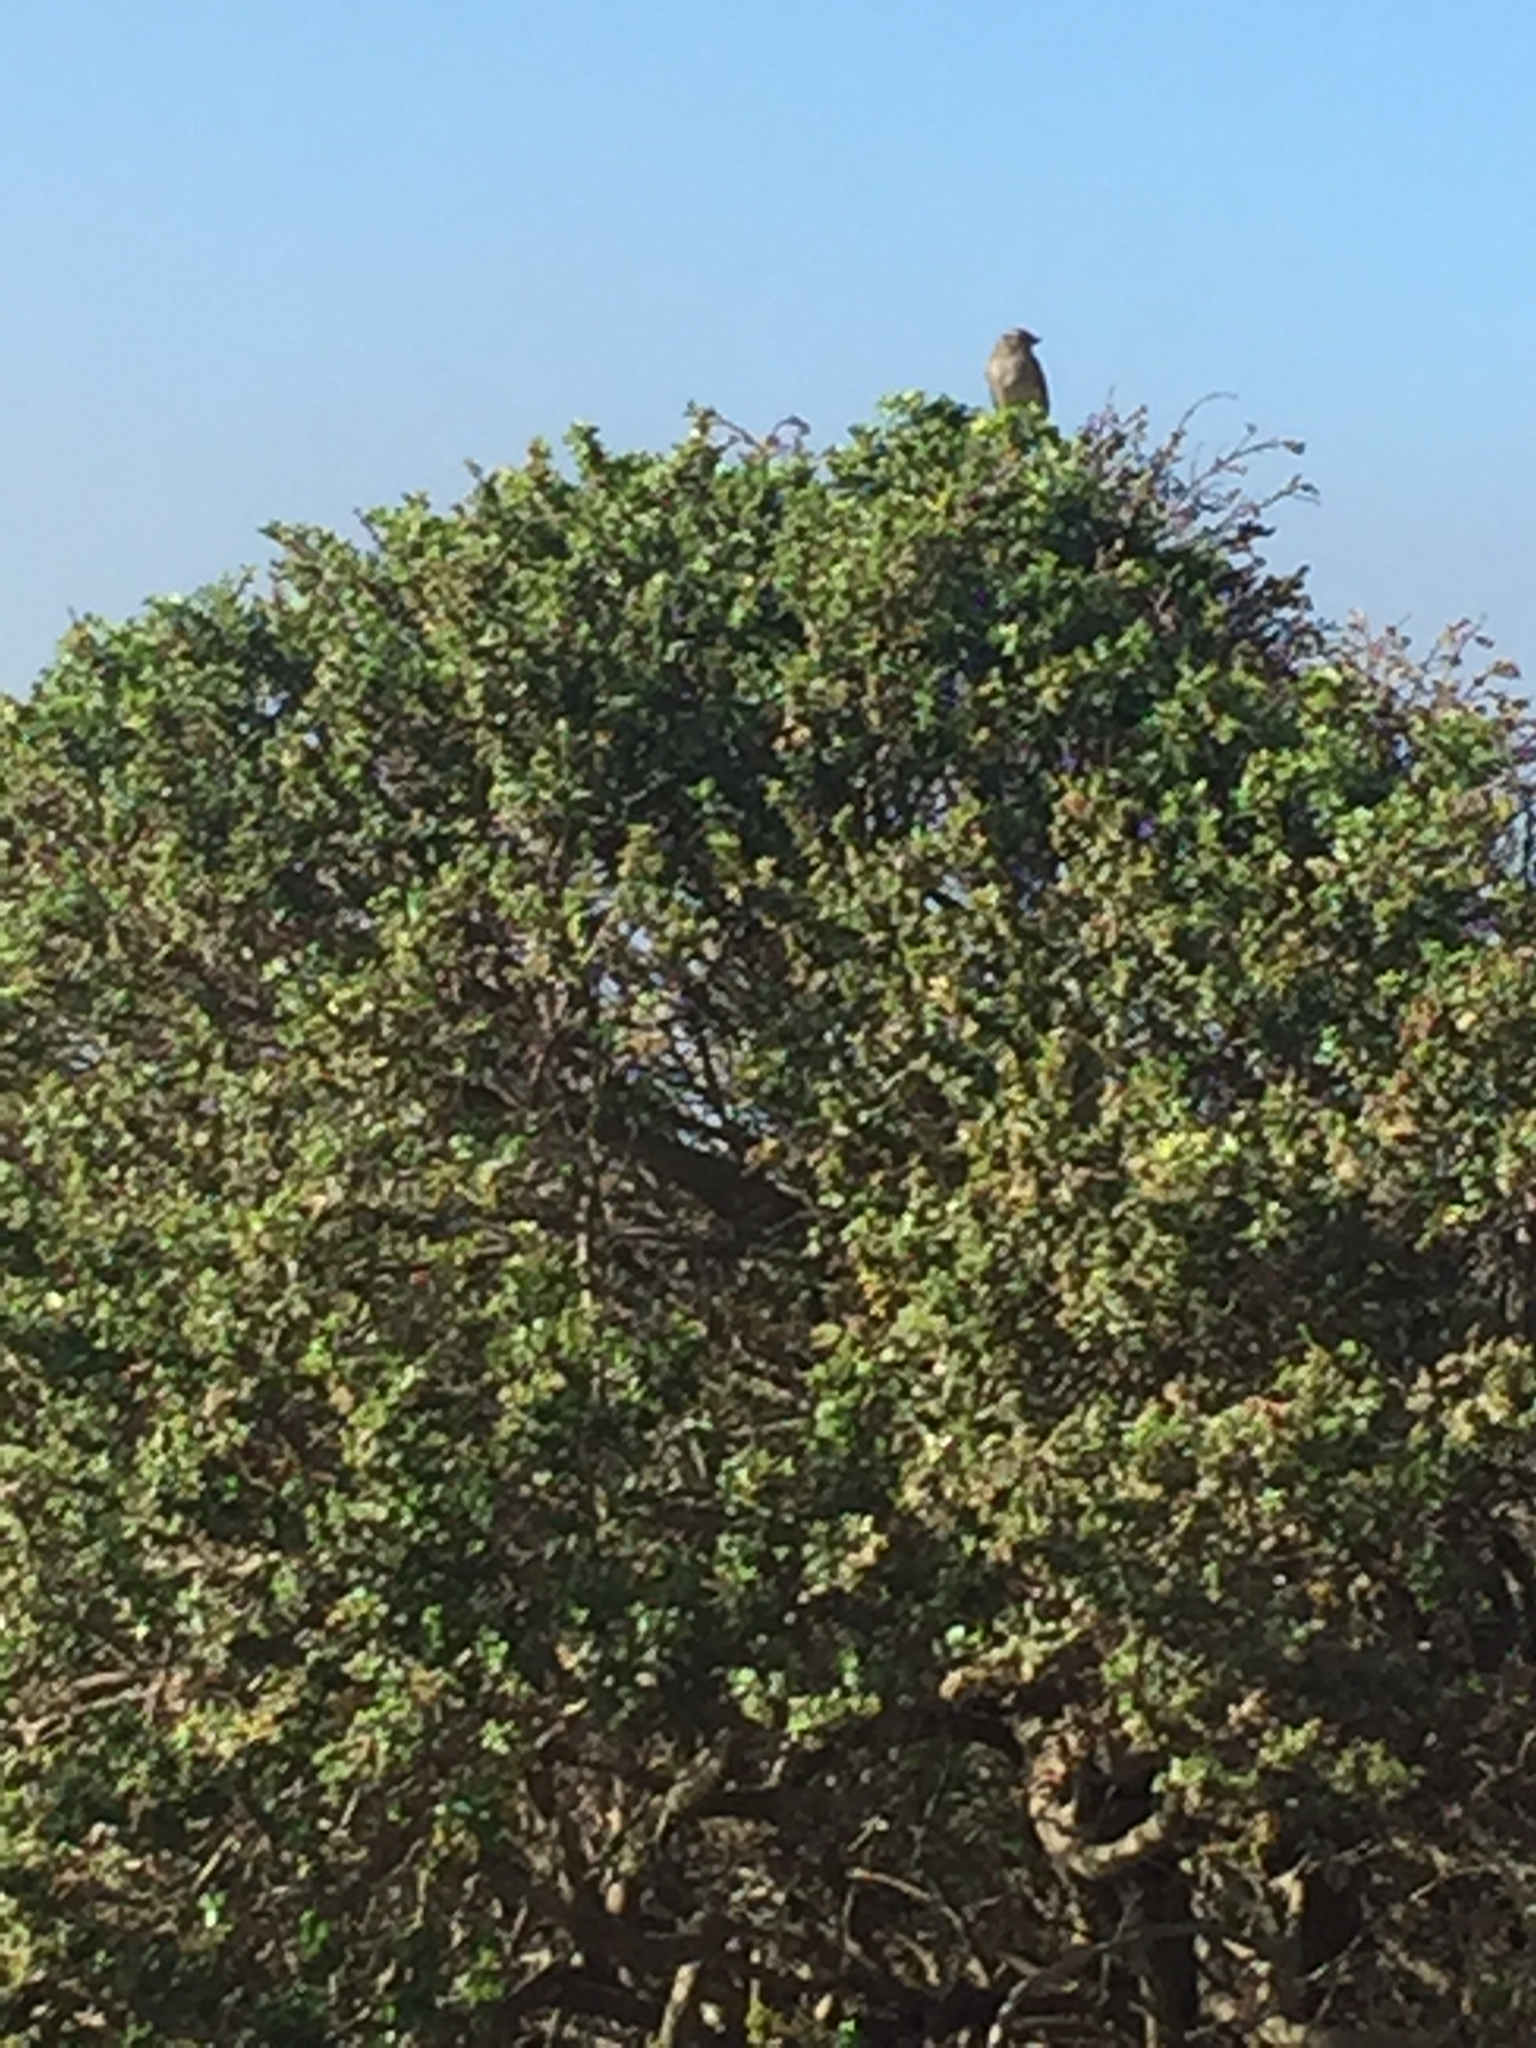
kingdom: Animalia
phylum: Chordata
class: Aves
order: Passeriformes
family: Passerellidae
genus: Zonotrichia
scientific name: Zonotrichia leucophrys
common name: White-crowned sparrow
